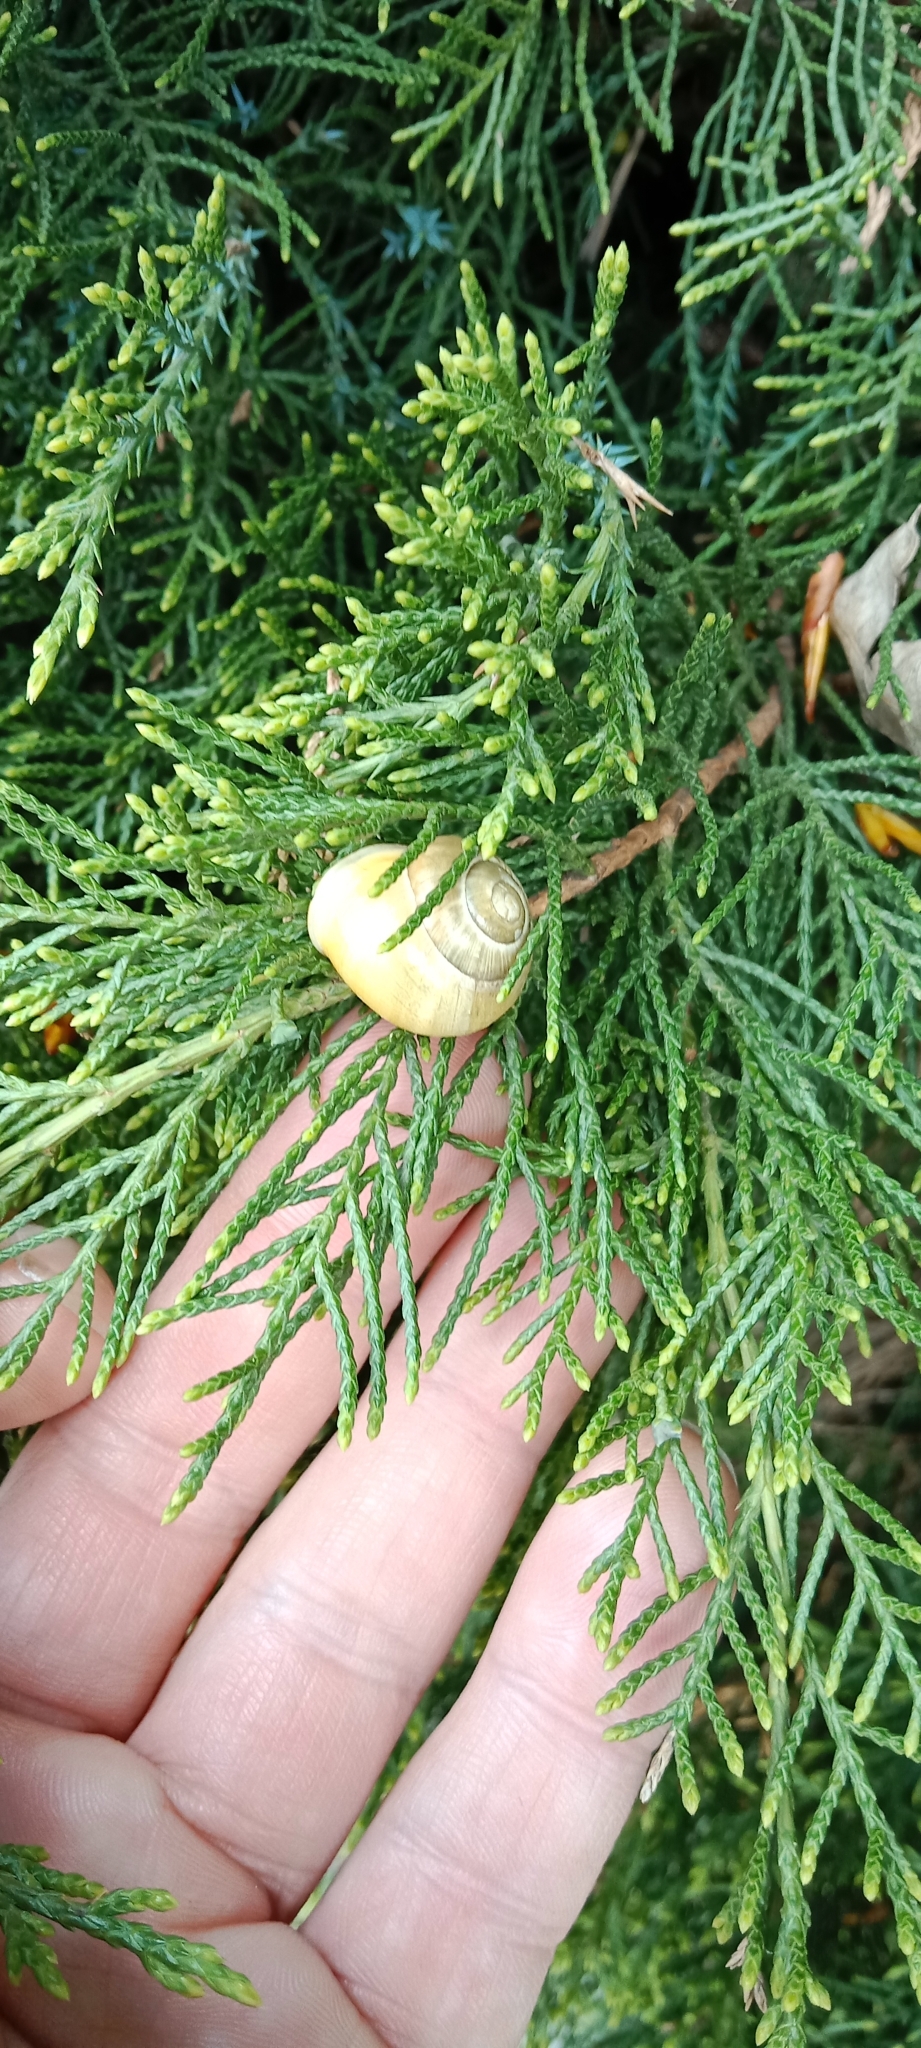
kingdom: Animalia
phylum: Mollusca
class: Gastropoda
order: Stylommatophora
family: Helicidae
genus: Cepaea
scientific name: Cepaea hortensis
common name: White-lip gardensnail
